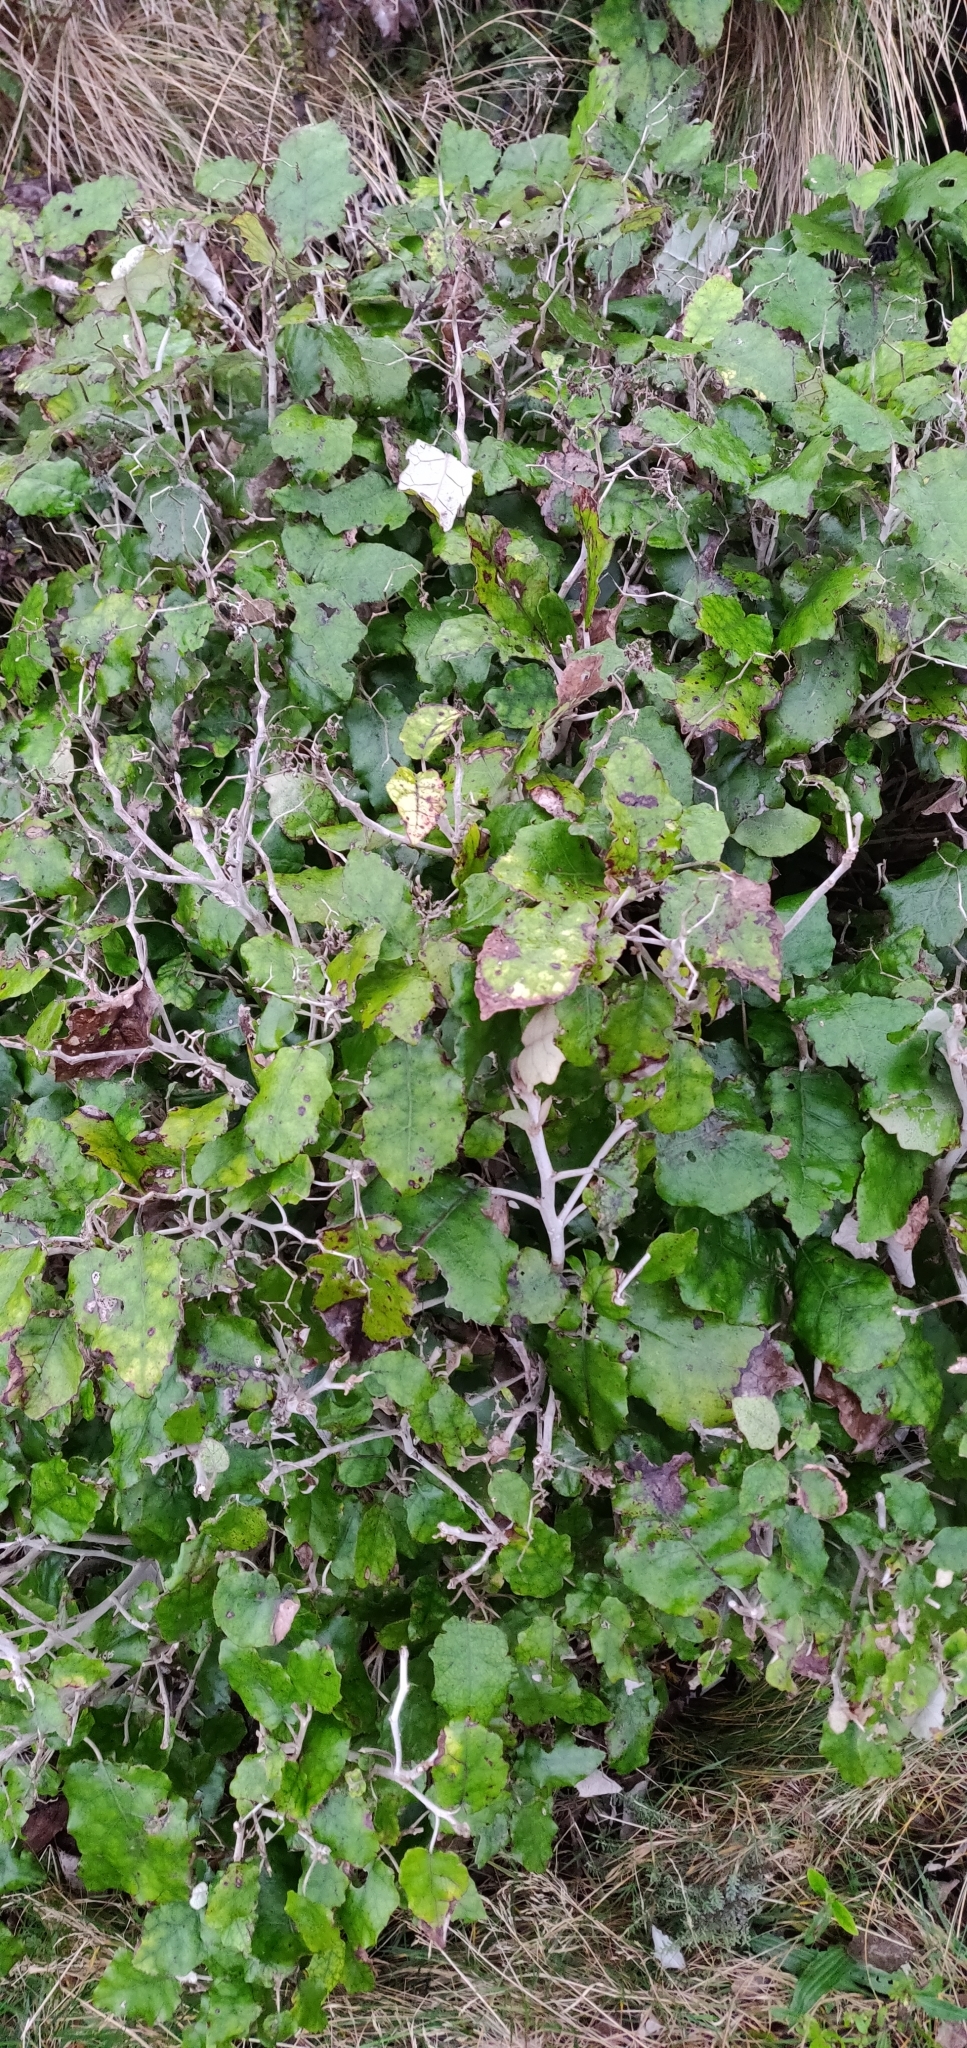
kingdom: Plantae
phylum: Tracheophyta
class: Magnoliopsida
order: Asterales
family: Asteraceae
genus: Brachyglottis
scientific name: Brachyglottis repanda
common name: Hedge ragwort
